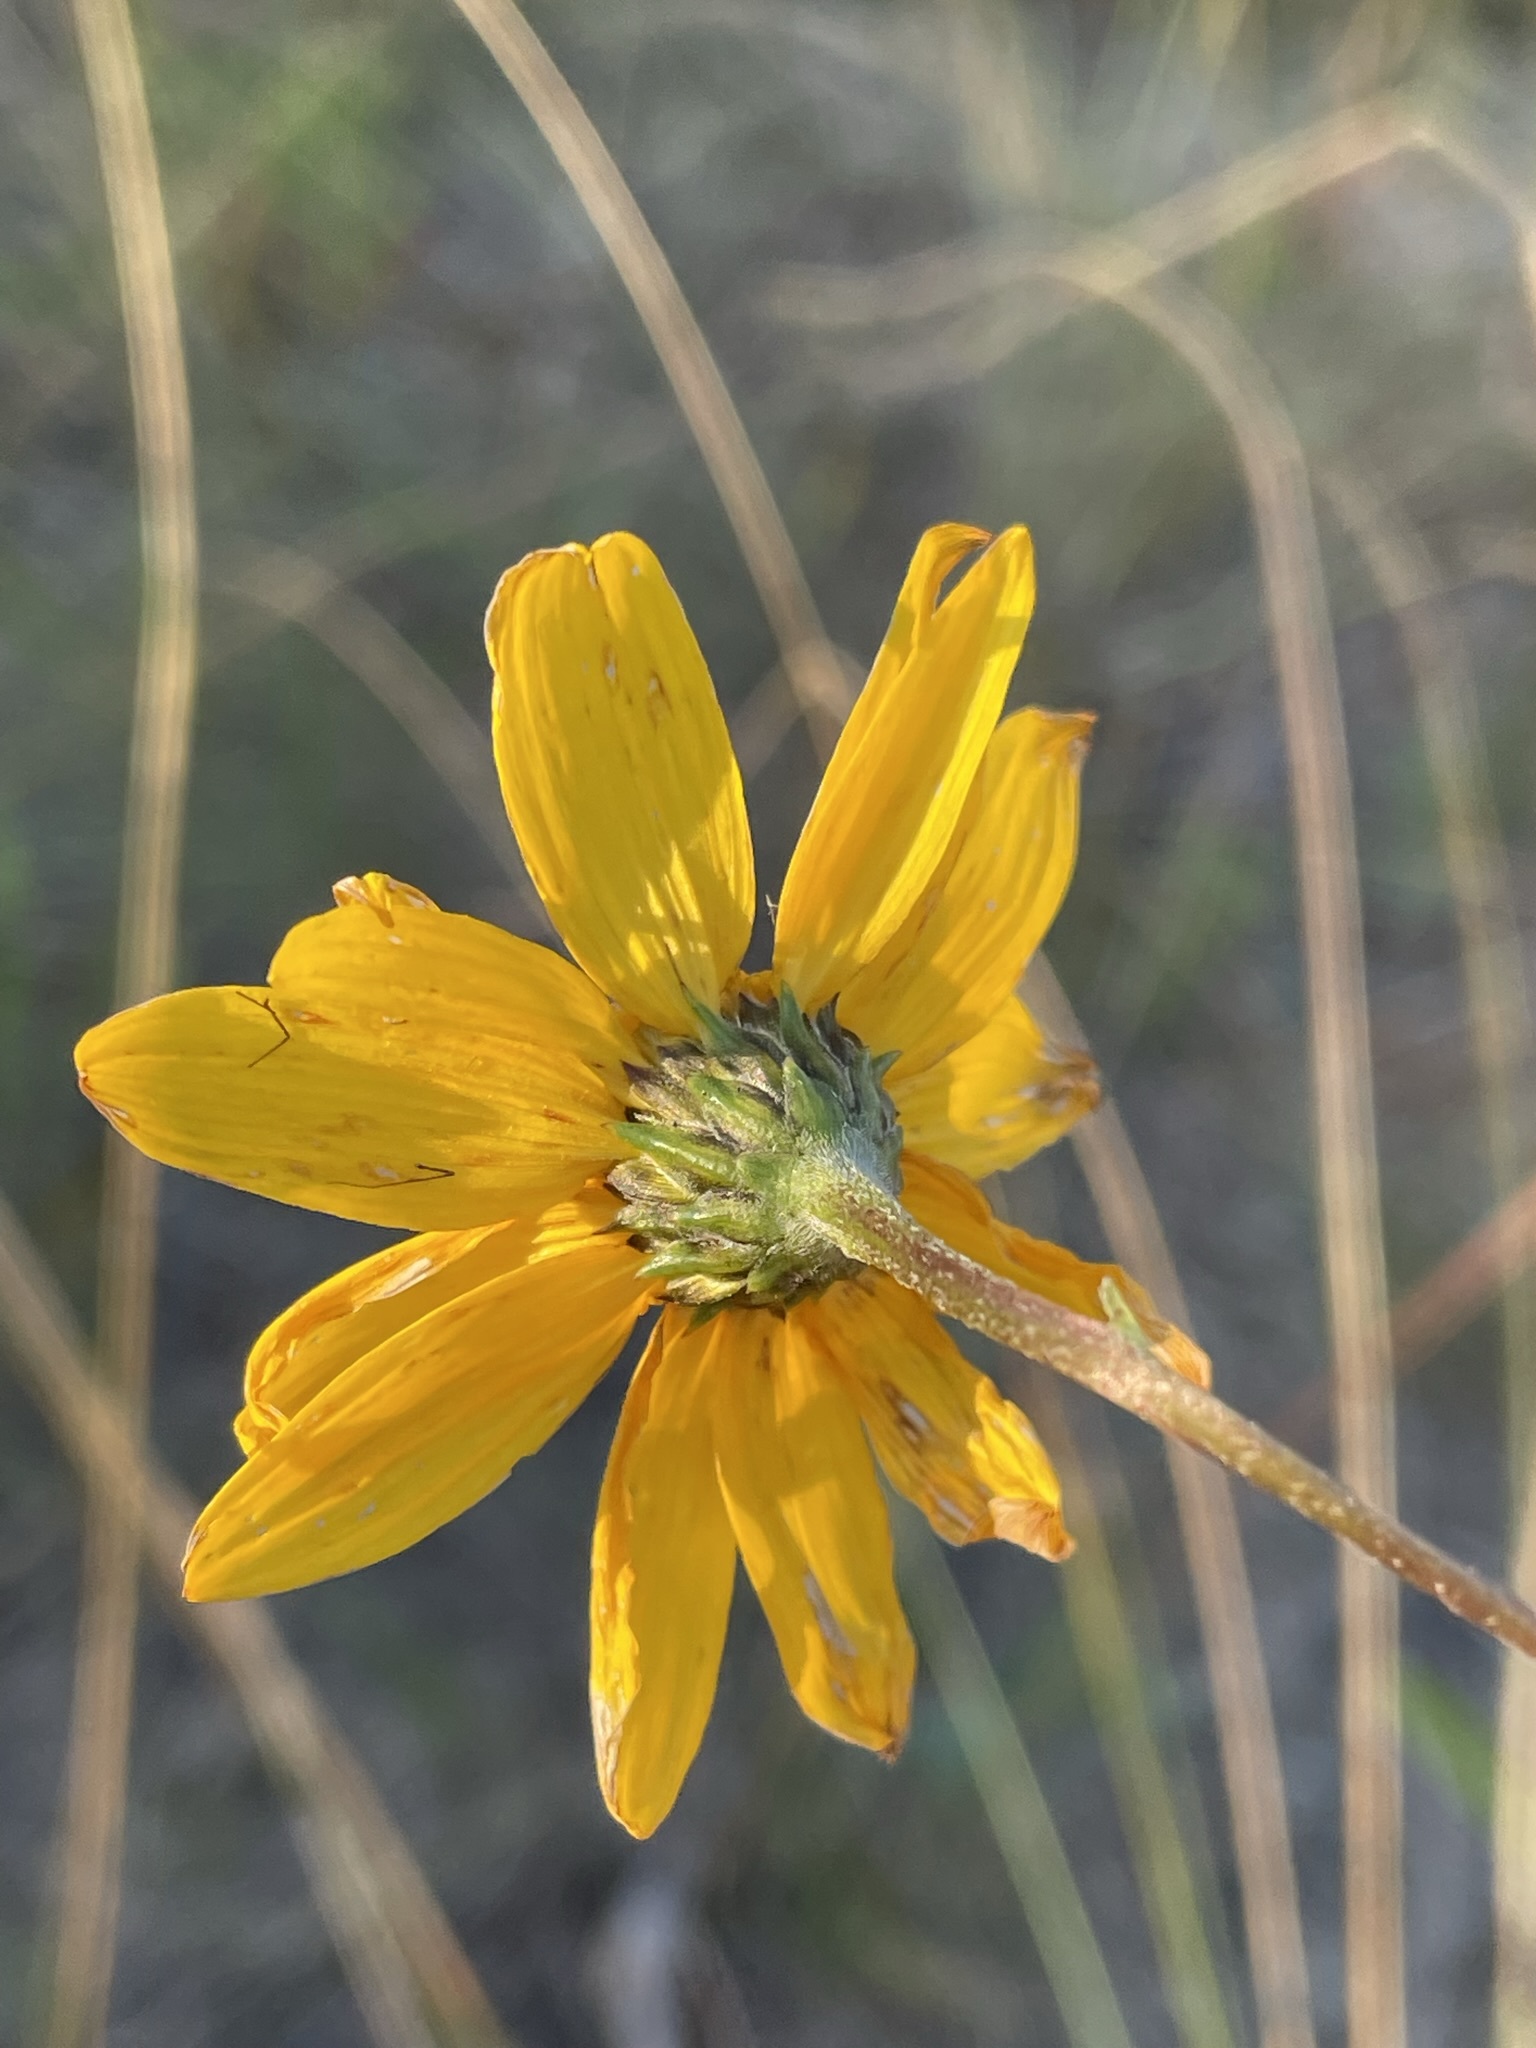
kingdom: Plantae
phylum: Tracheophyta
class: Magnoliopsida
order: Asterales
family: Asteraceae
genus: Helianthus
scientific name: Helianthus occidentalis
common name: Western sunflower
